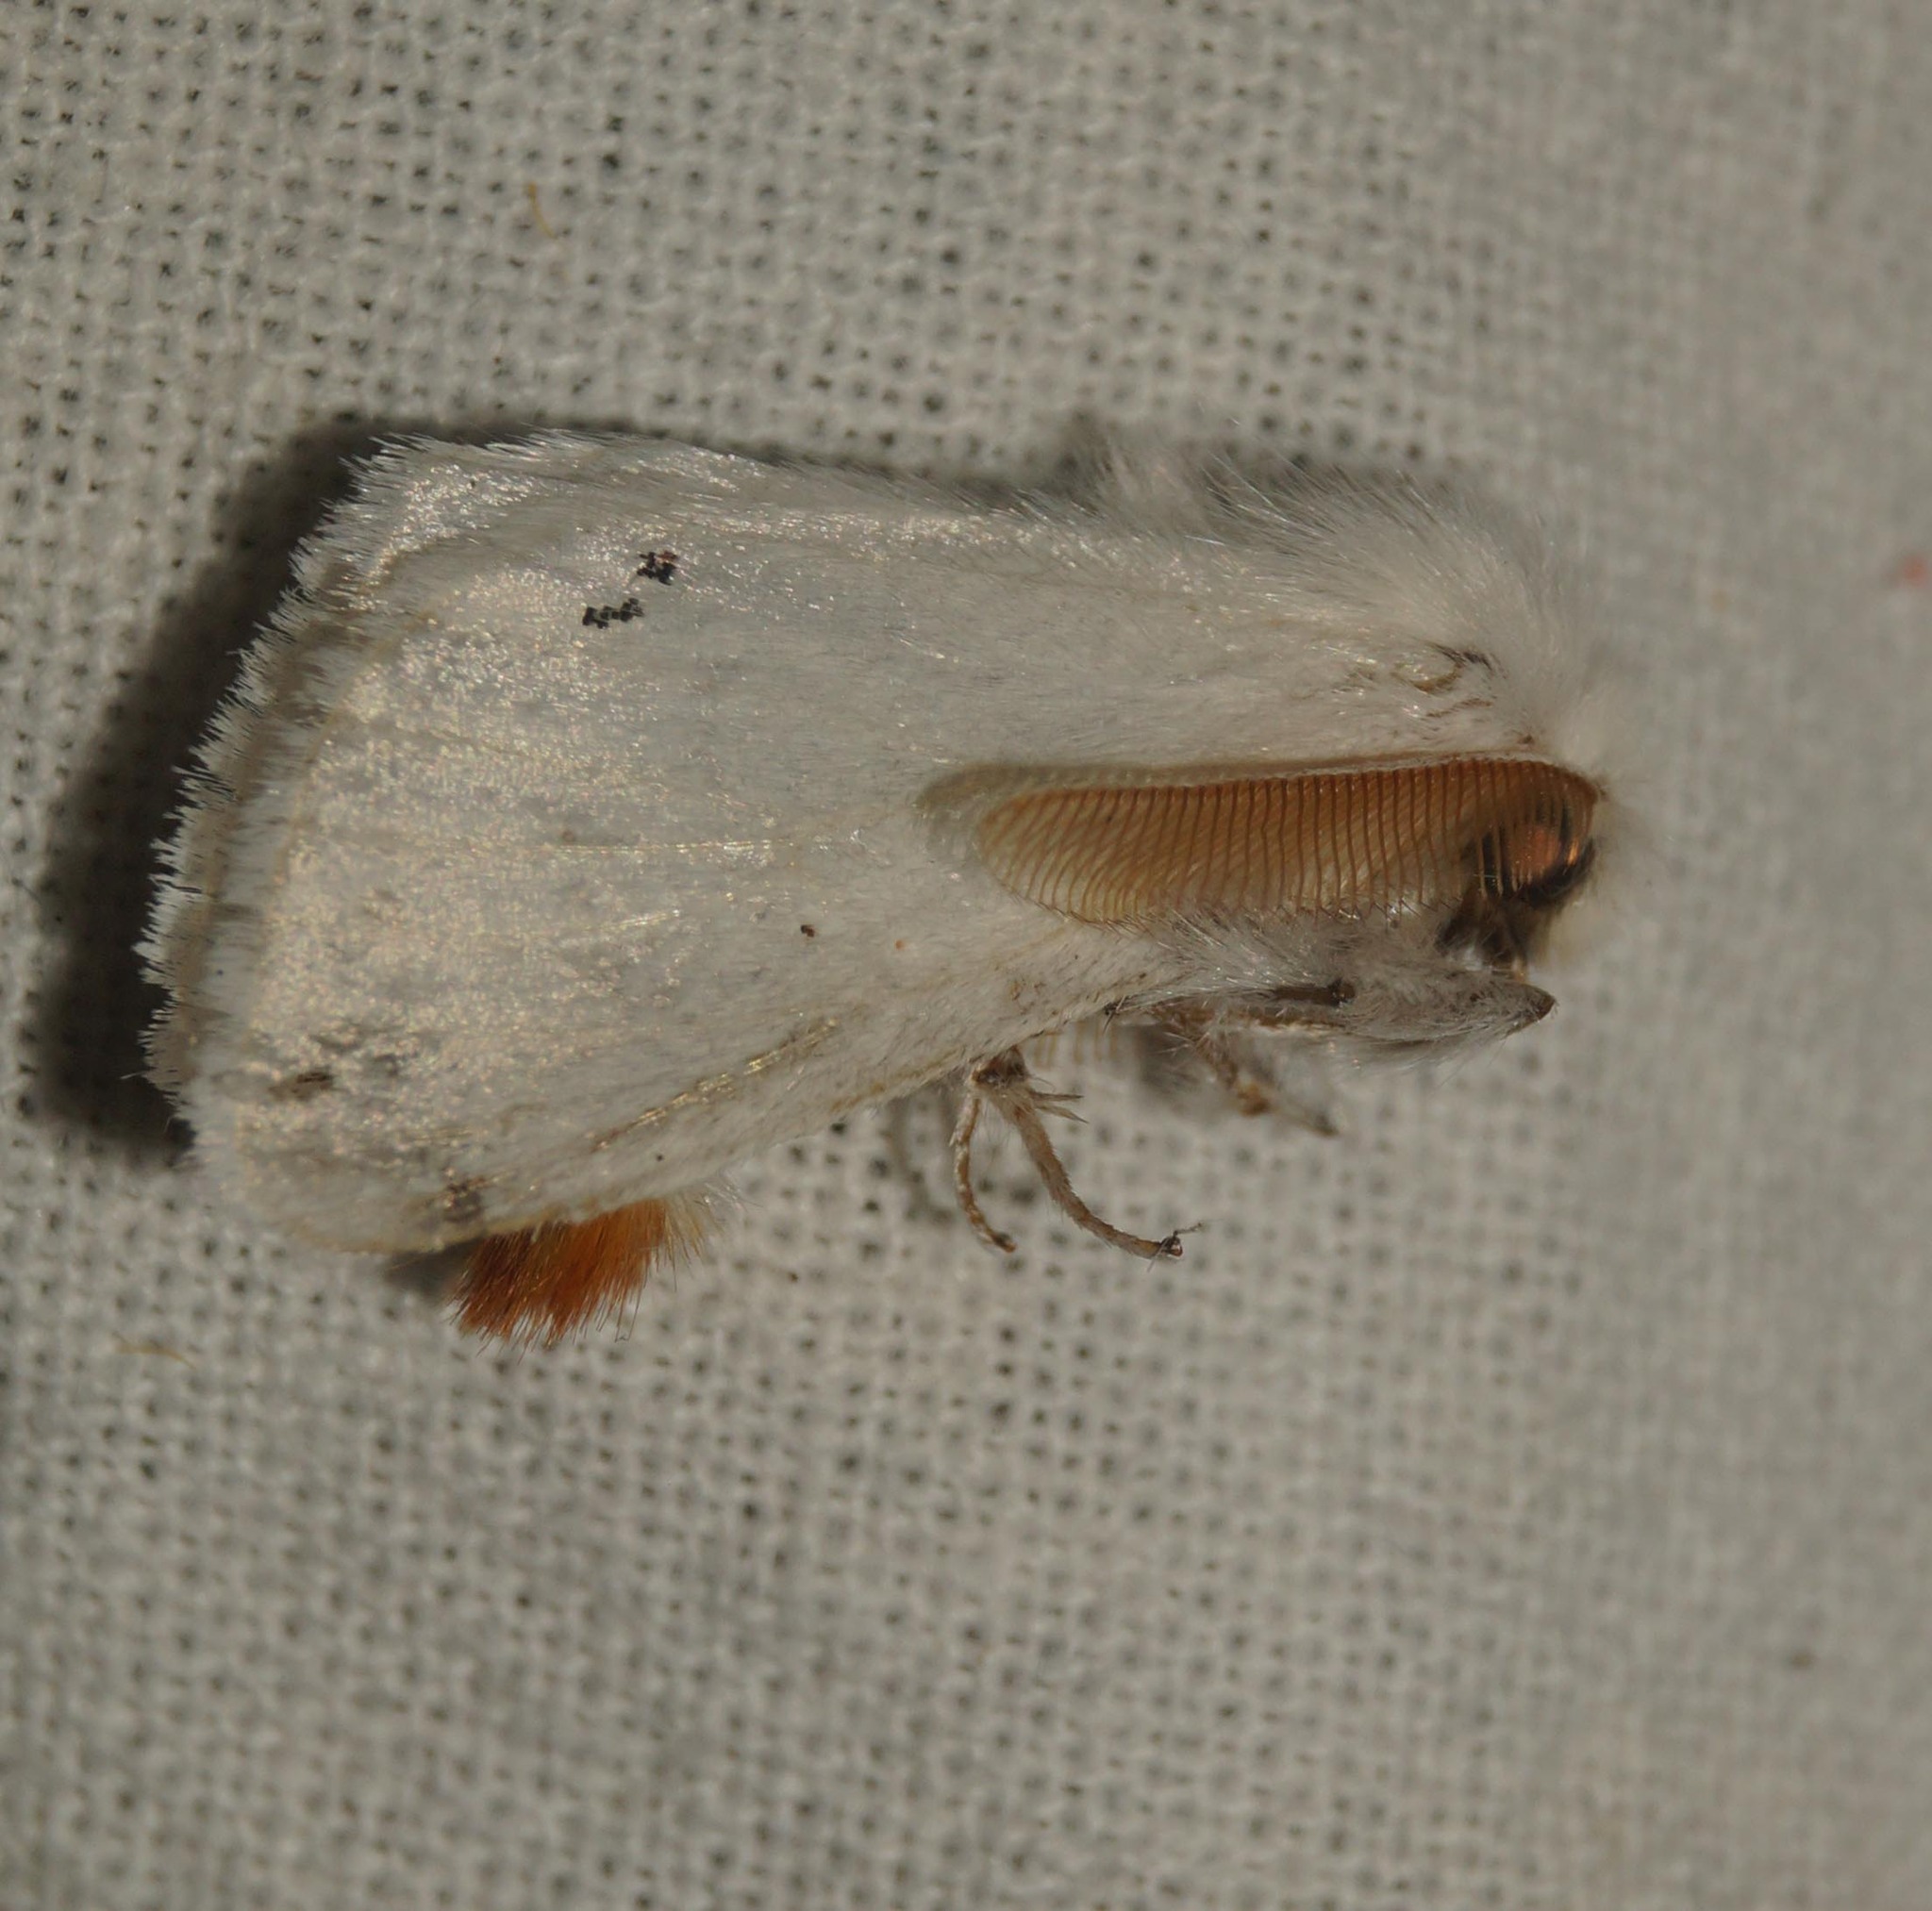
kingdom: Animalia
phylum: Arthropoda
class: Insecta
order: Lepidoptera
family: Erebidae
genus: Euproctis
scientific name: Euproctis chrysorrhoea
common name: Brown-tail
